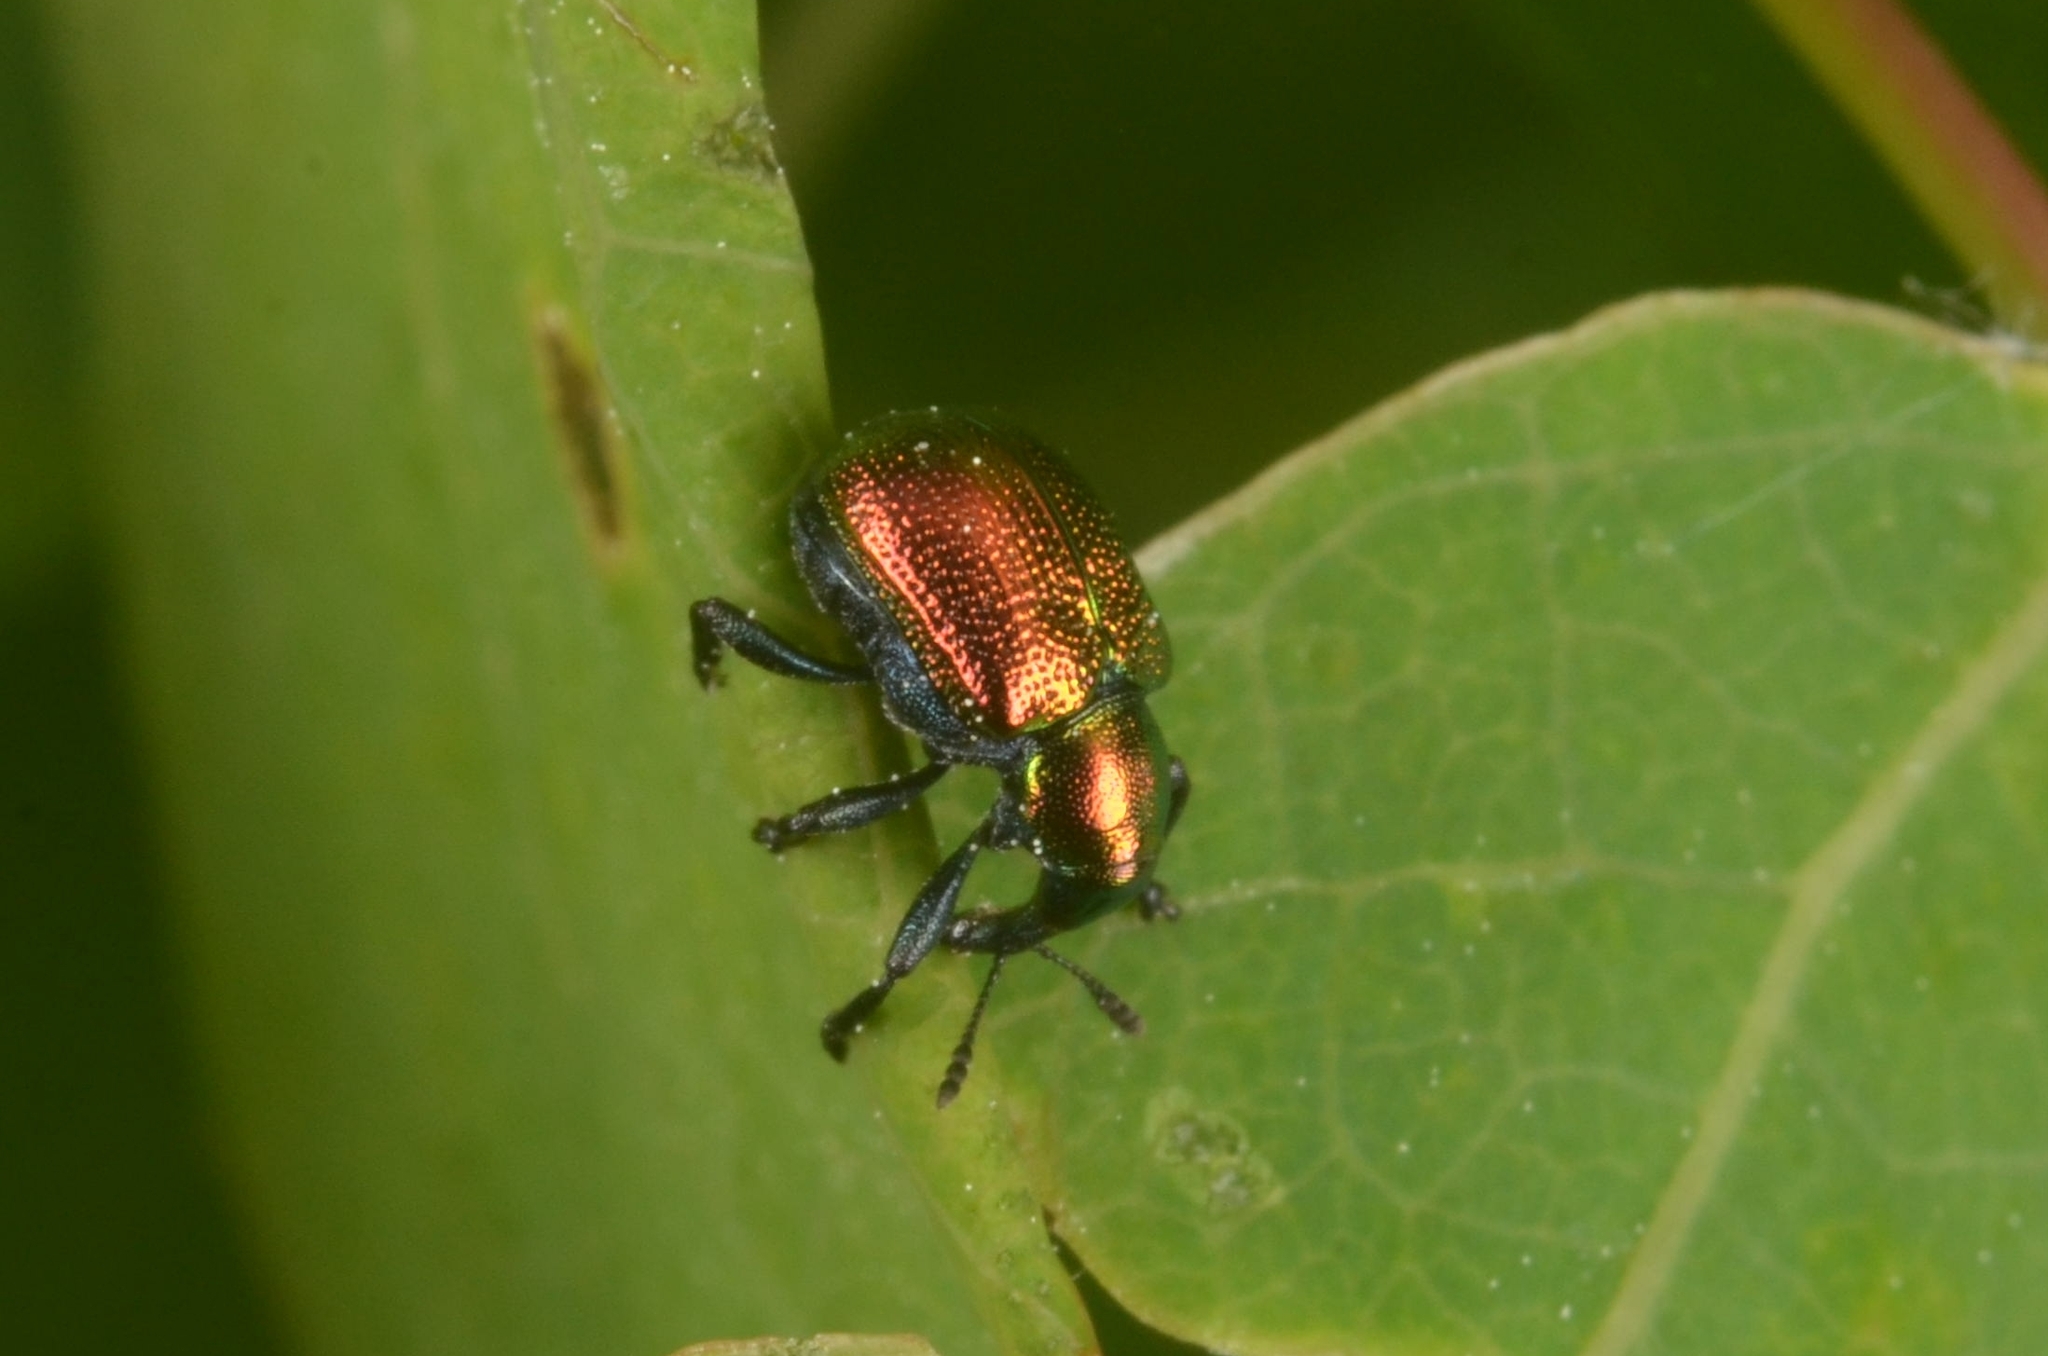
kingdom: Animalia
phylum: Arthropoda
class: Insecta
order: Coleoptera
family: Attelabidae
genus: Byctiscus
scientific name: Byctiscus populi
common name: Leaf-rolling weevil
